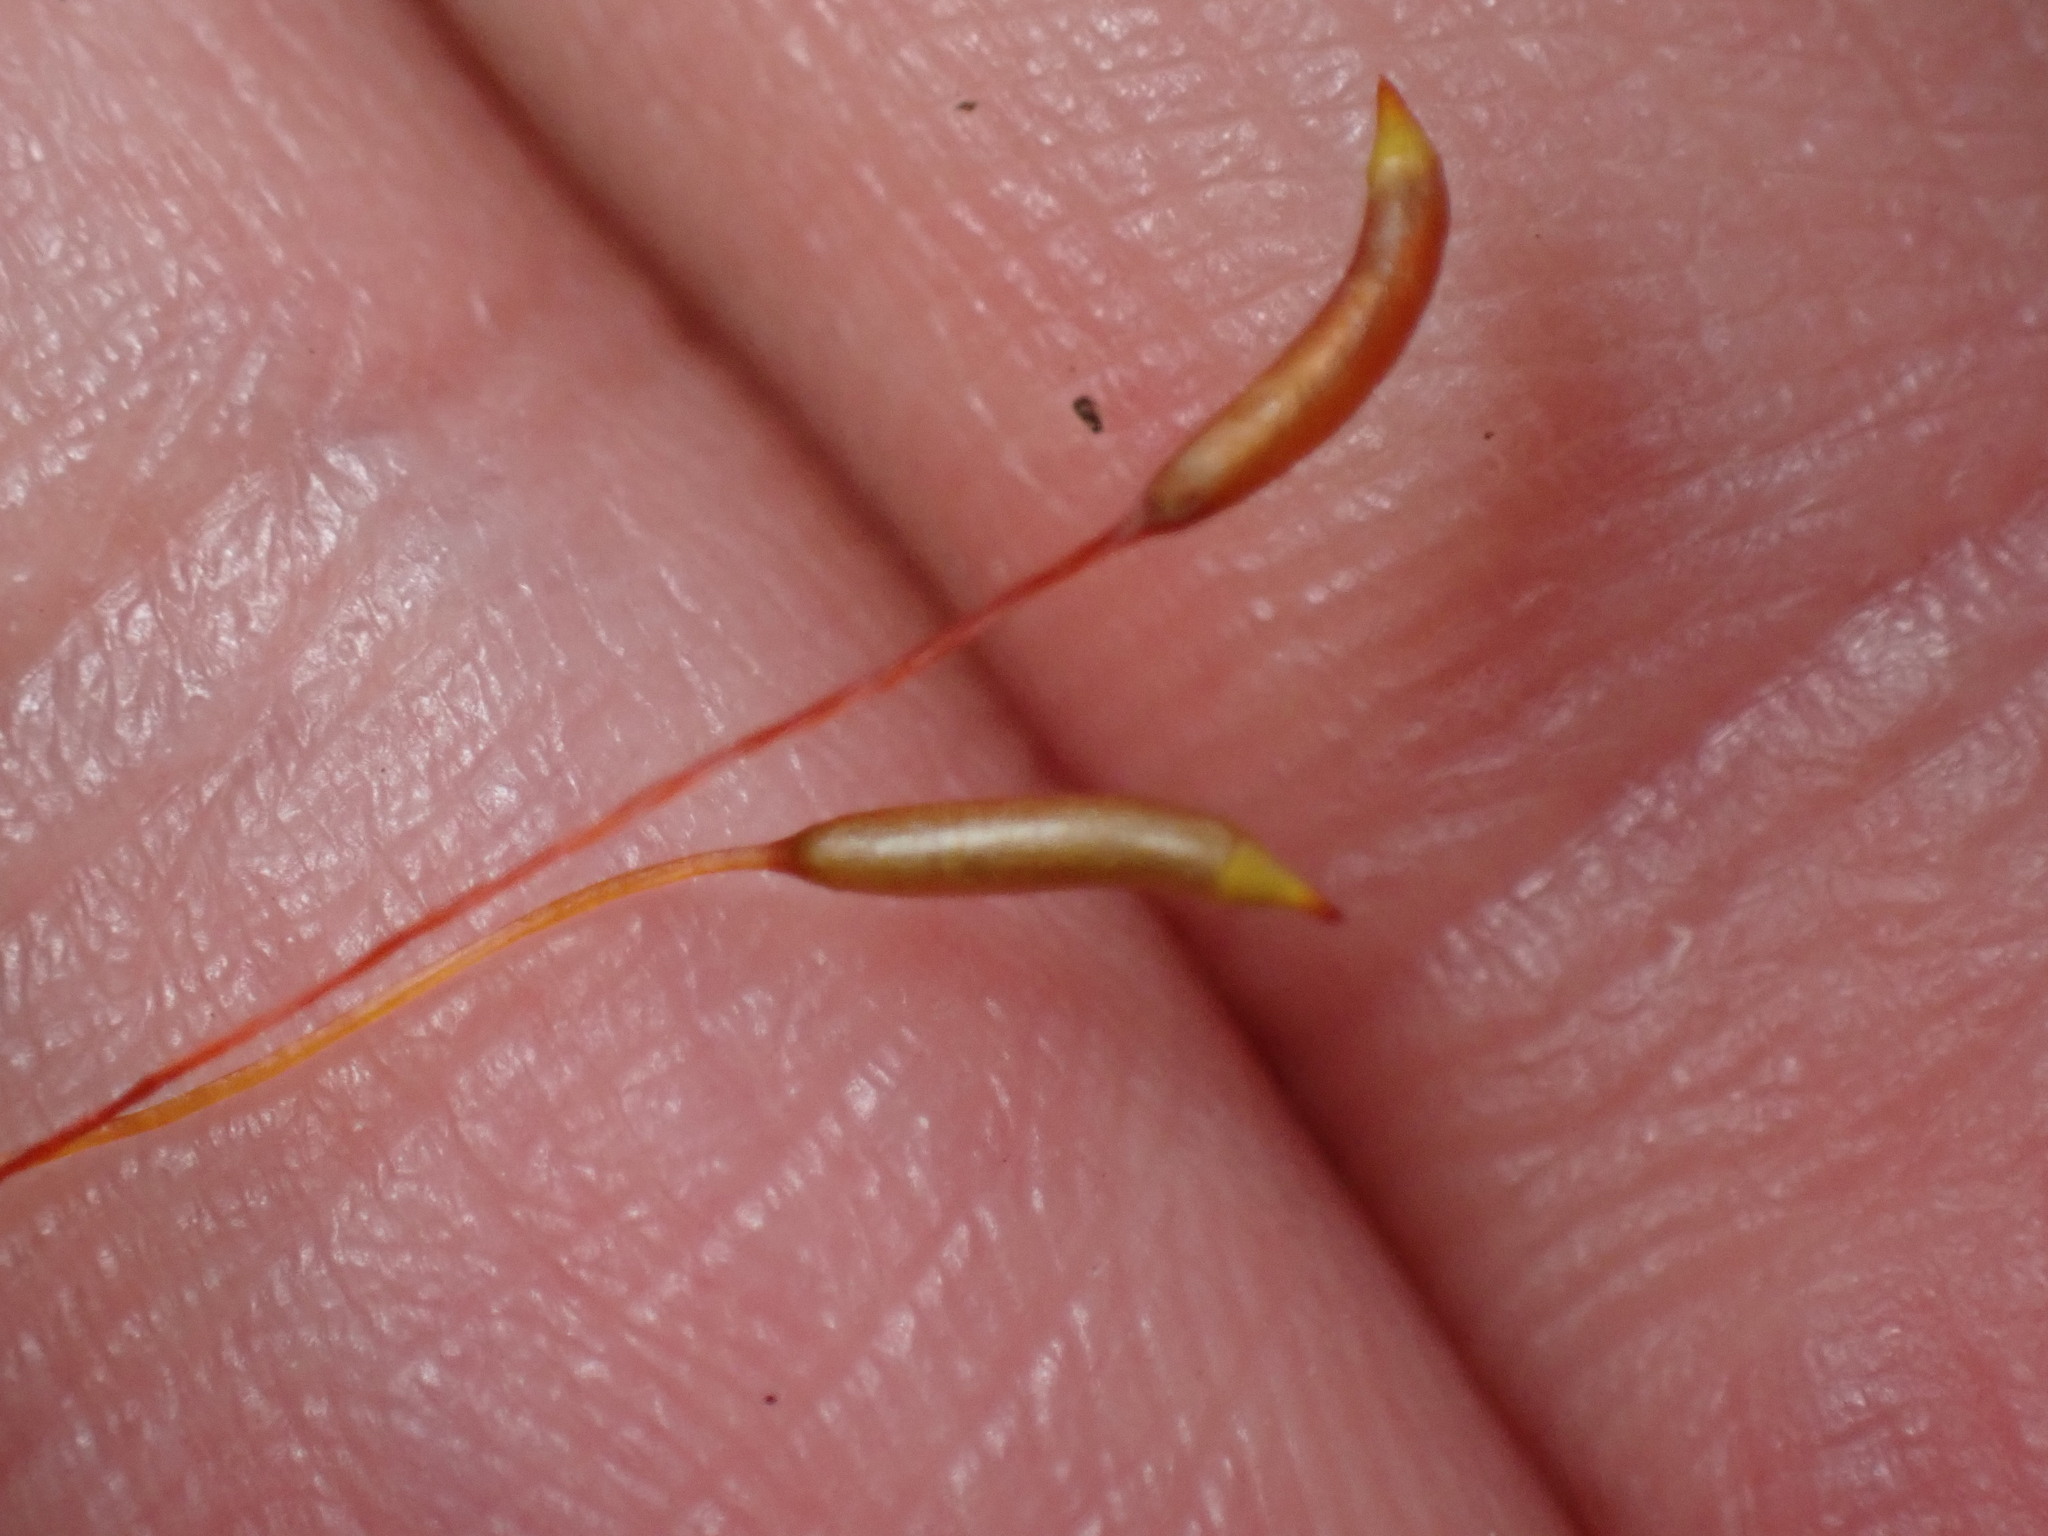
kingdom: Plantae
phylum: Bryophyta
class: Bryopsida
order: Hypnales
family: Callicladiaceae
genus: Callicladium
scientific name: Callicladium imponens
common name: Brocade moss
